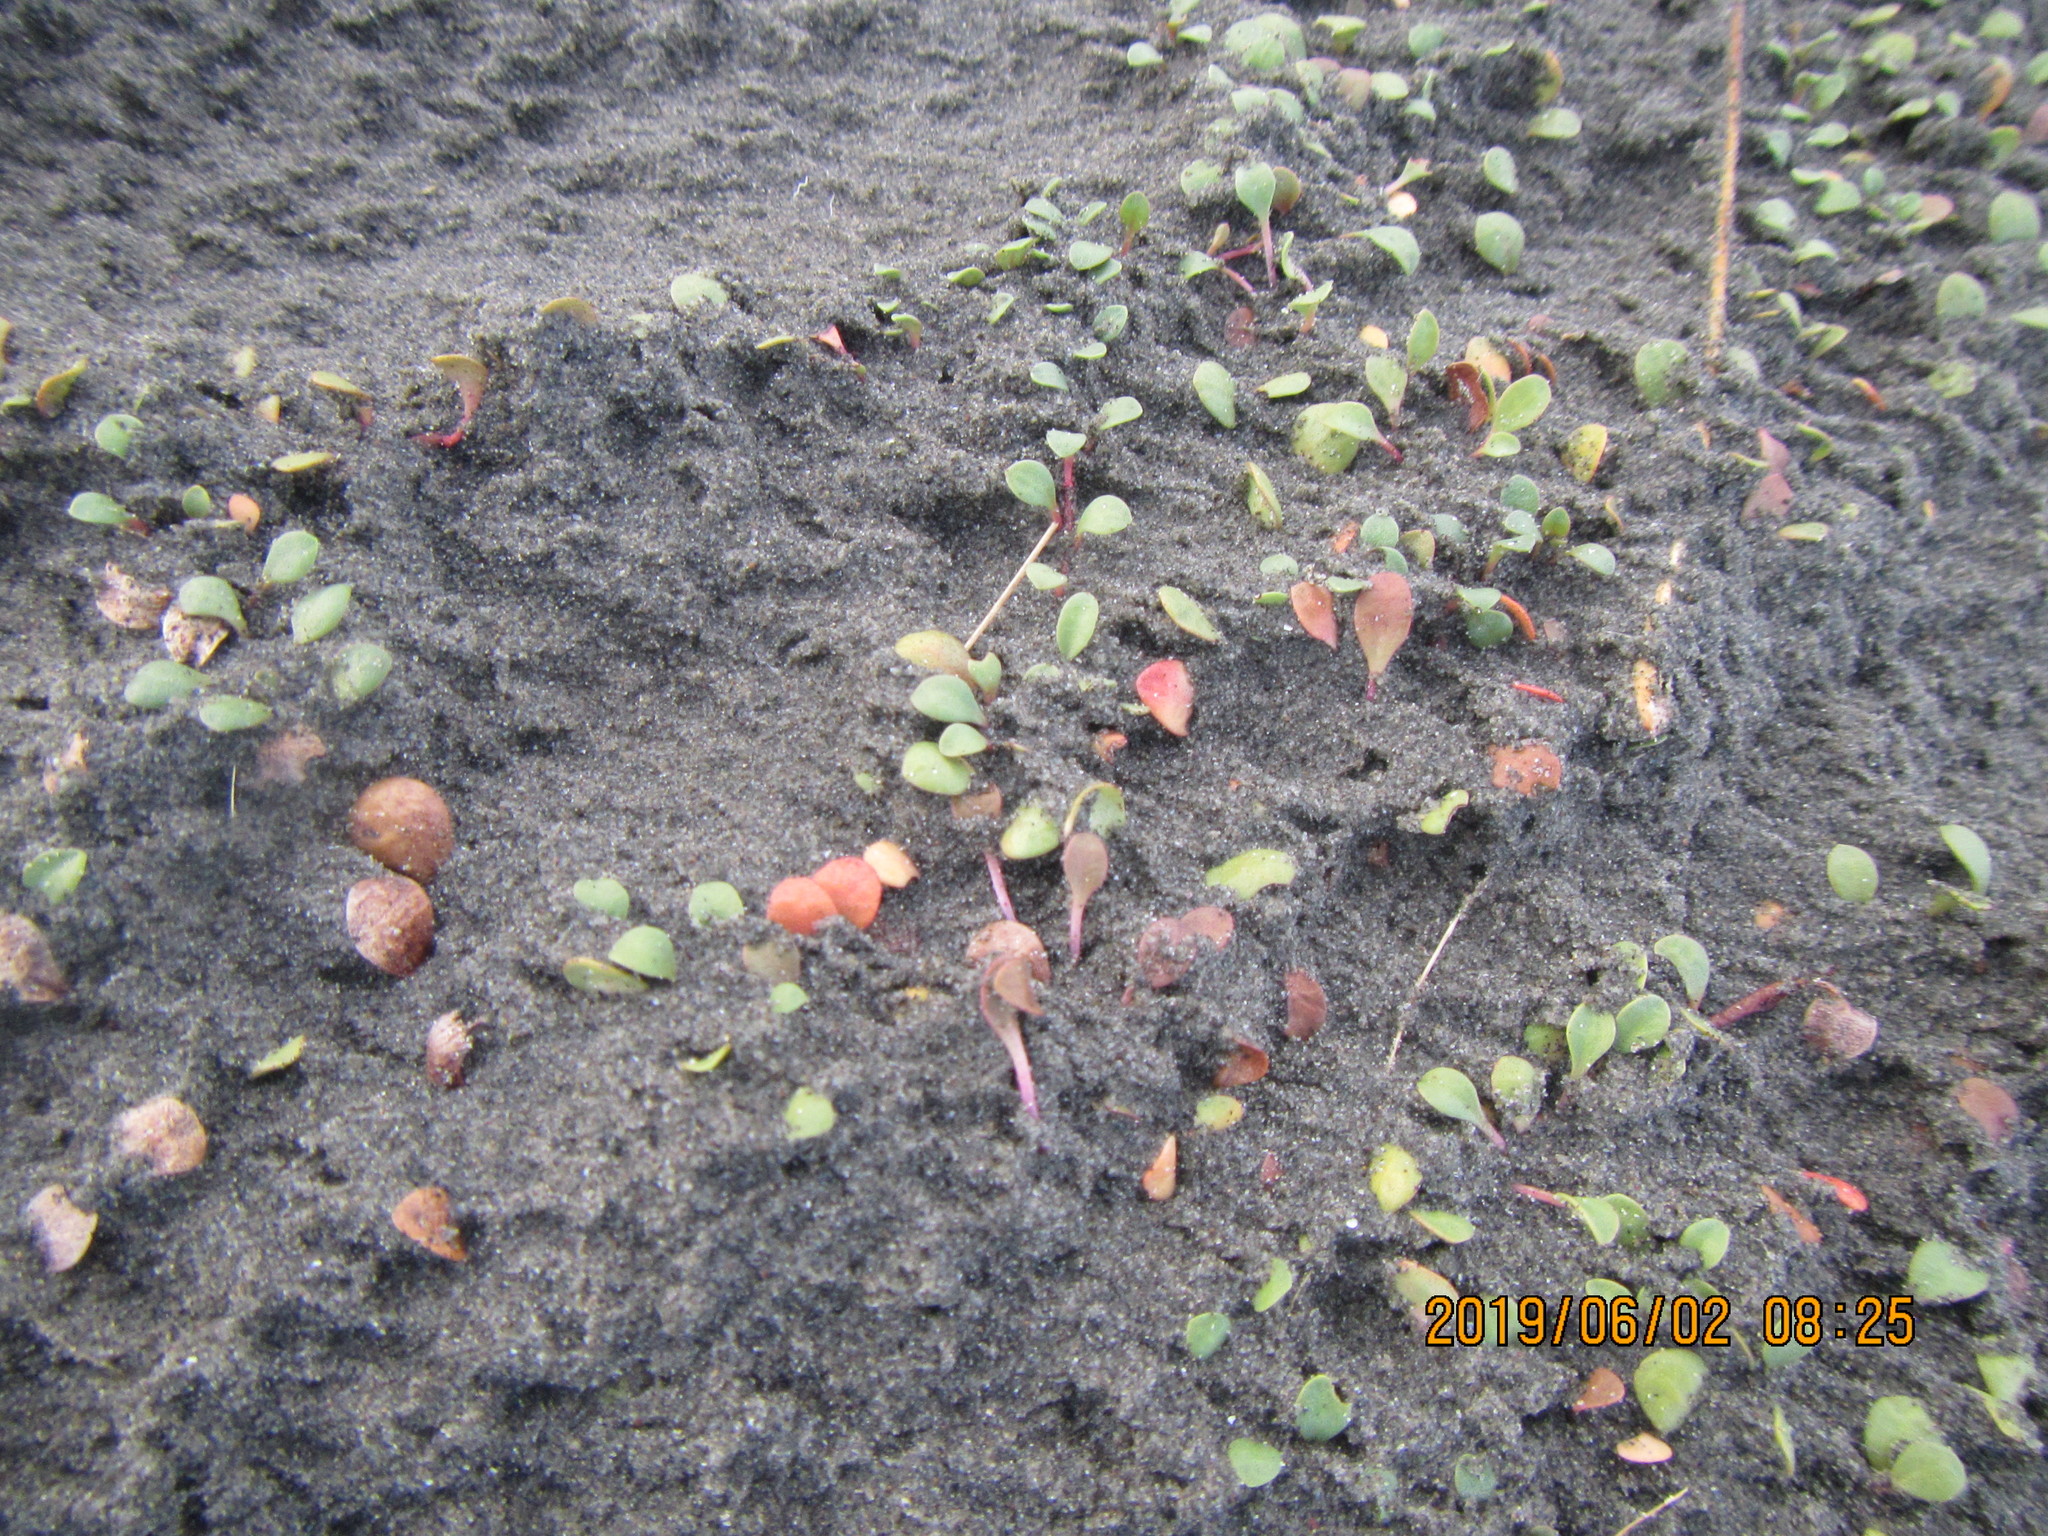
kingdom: Plantae
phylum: Tracheophyta
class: Magnoliopsida
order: Ericales
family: Primulaceae
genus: Samolus
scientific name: Samolus repens
